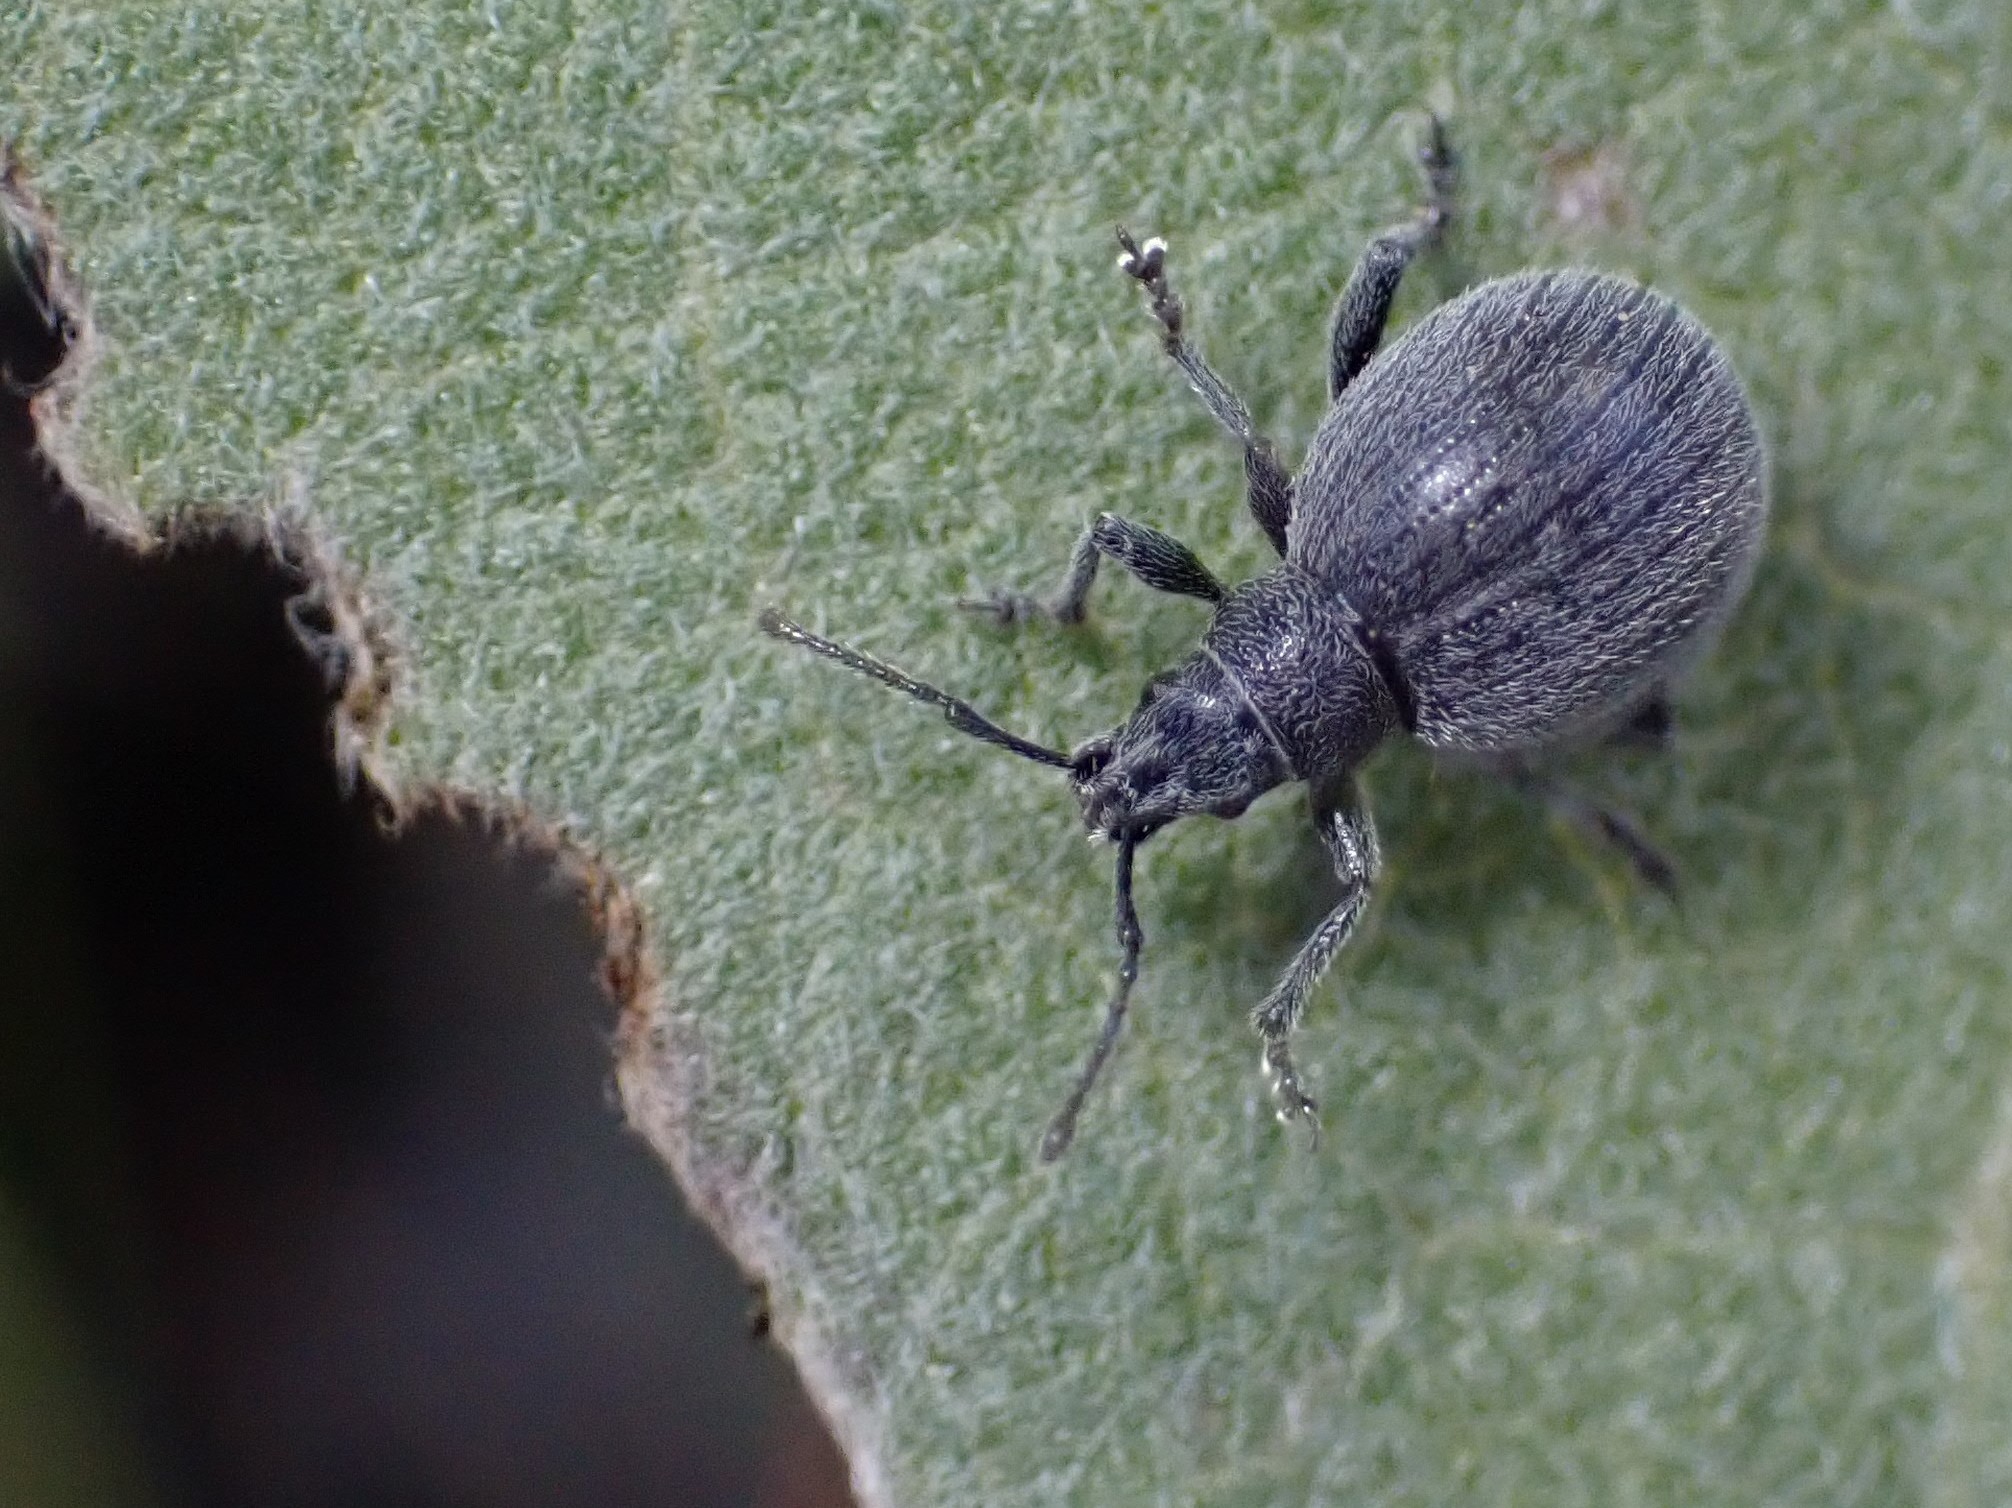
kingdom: Animalia
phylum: Arthropoda
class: Insecta
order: Coleoptera
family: Curculionidae
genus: Omias
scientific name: Omias saccatus
